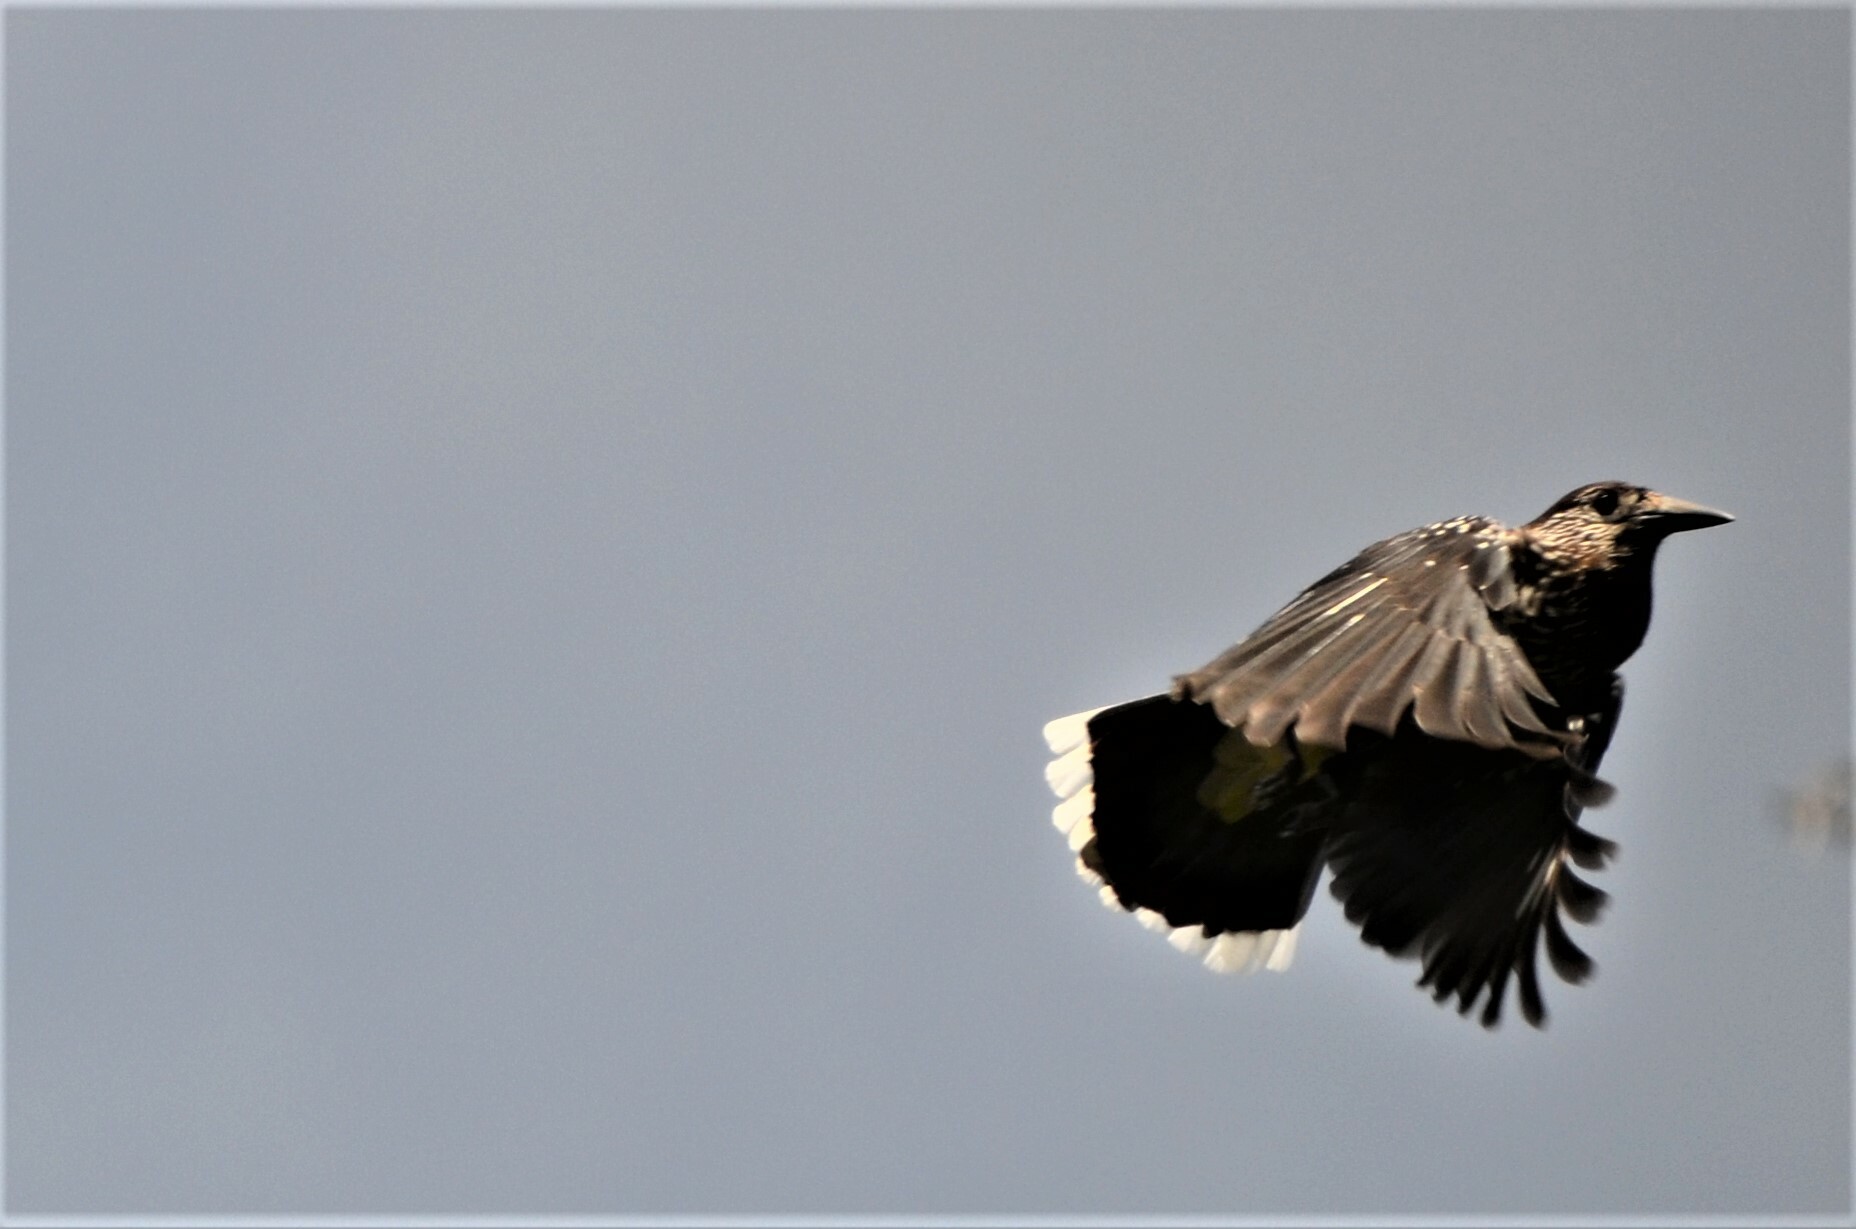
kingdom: Animalia
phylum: Chordata
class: Aves
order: Passeriformes
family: Corvidae
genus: Nucifraga
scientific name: Nucifraga caryocatactes
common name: Spotted nutcracker
